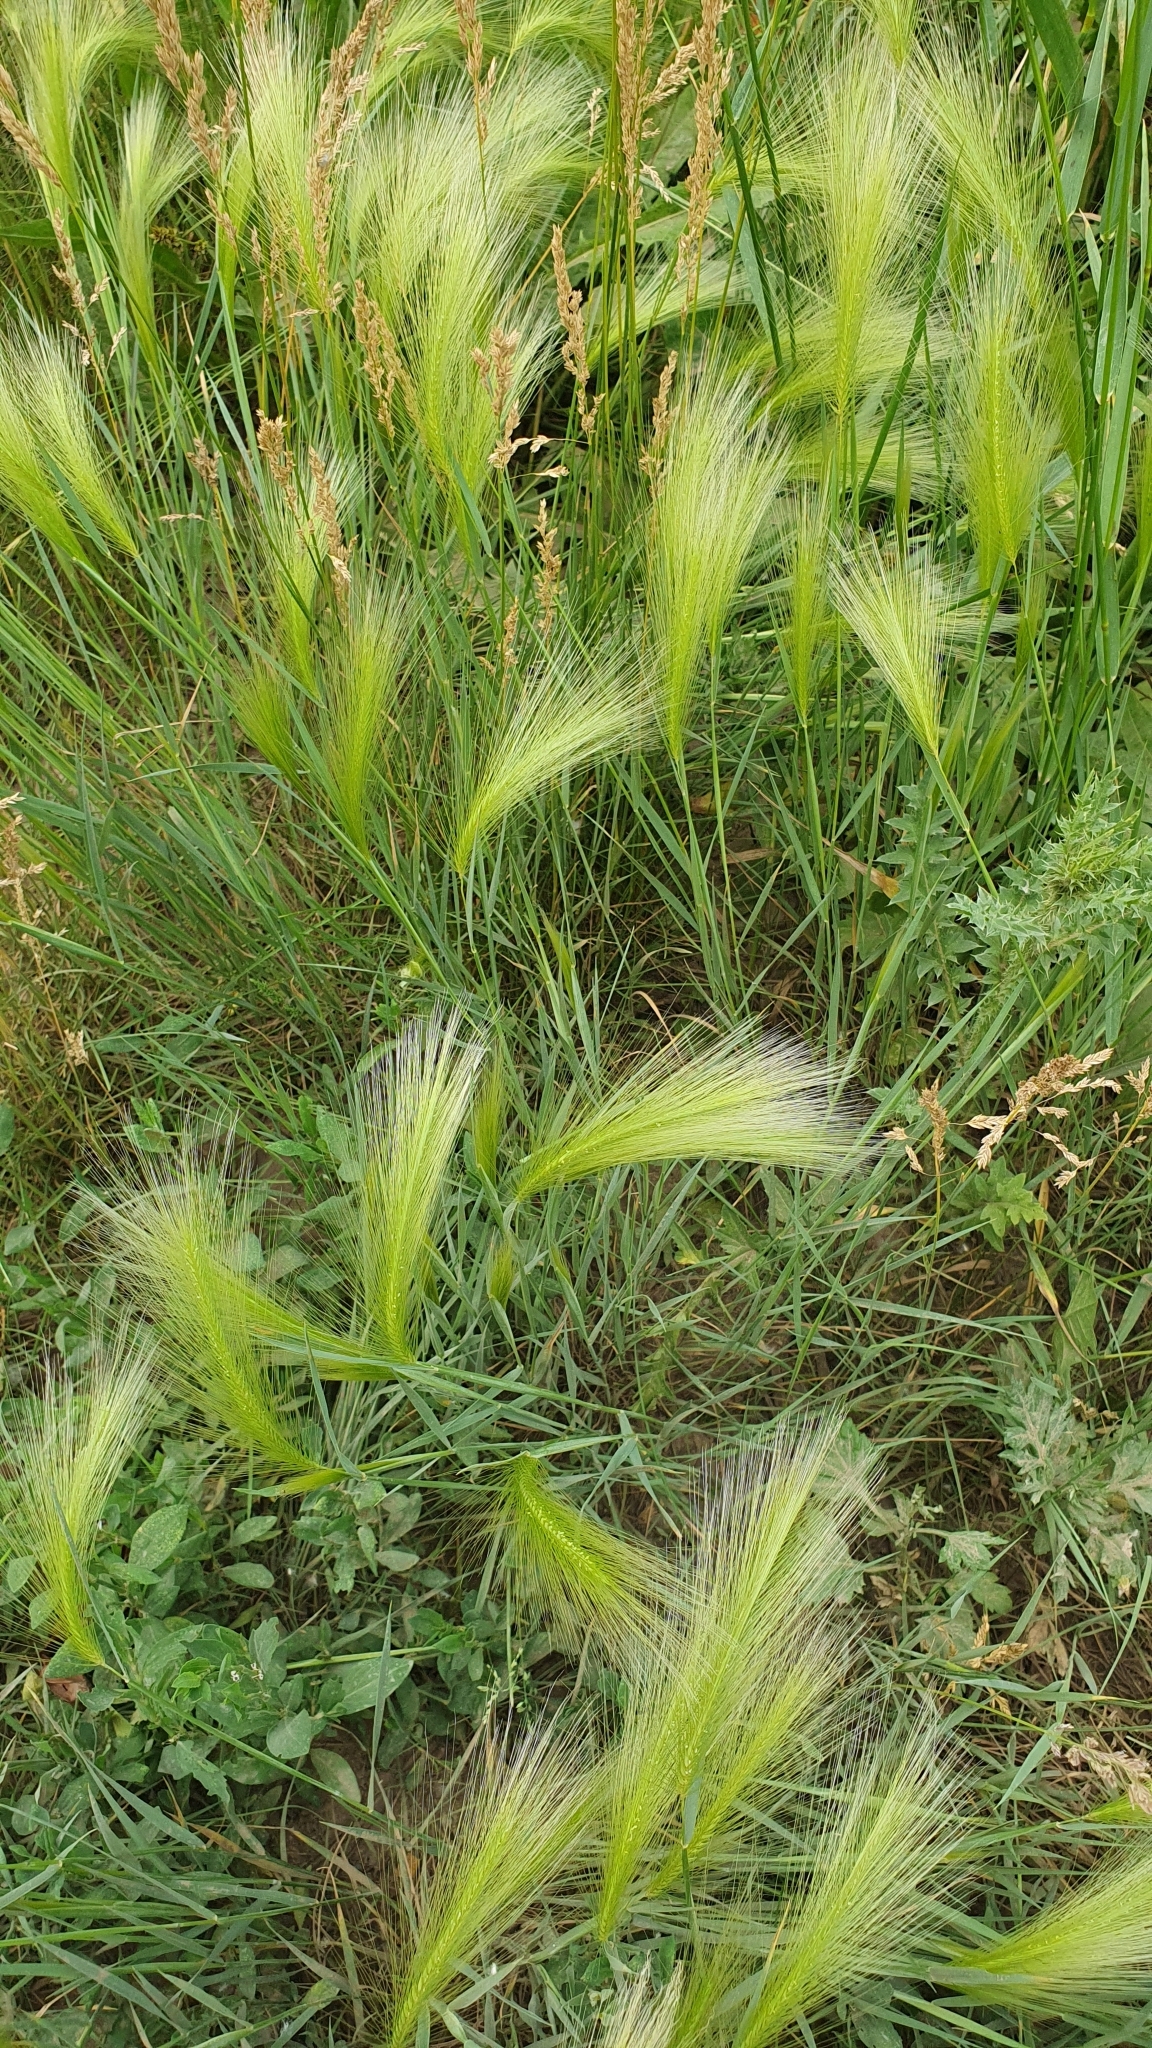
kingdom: Plantae
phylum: Tracheophyta
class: Liliopsida
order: Poales
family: Poaceae
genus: Hordeum
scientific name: Hordeum jubatum
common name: Foxtail barley
